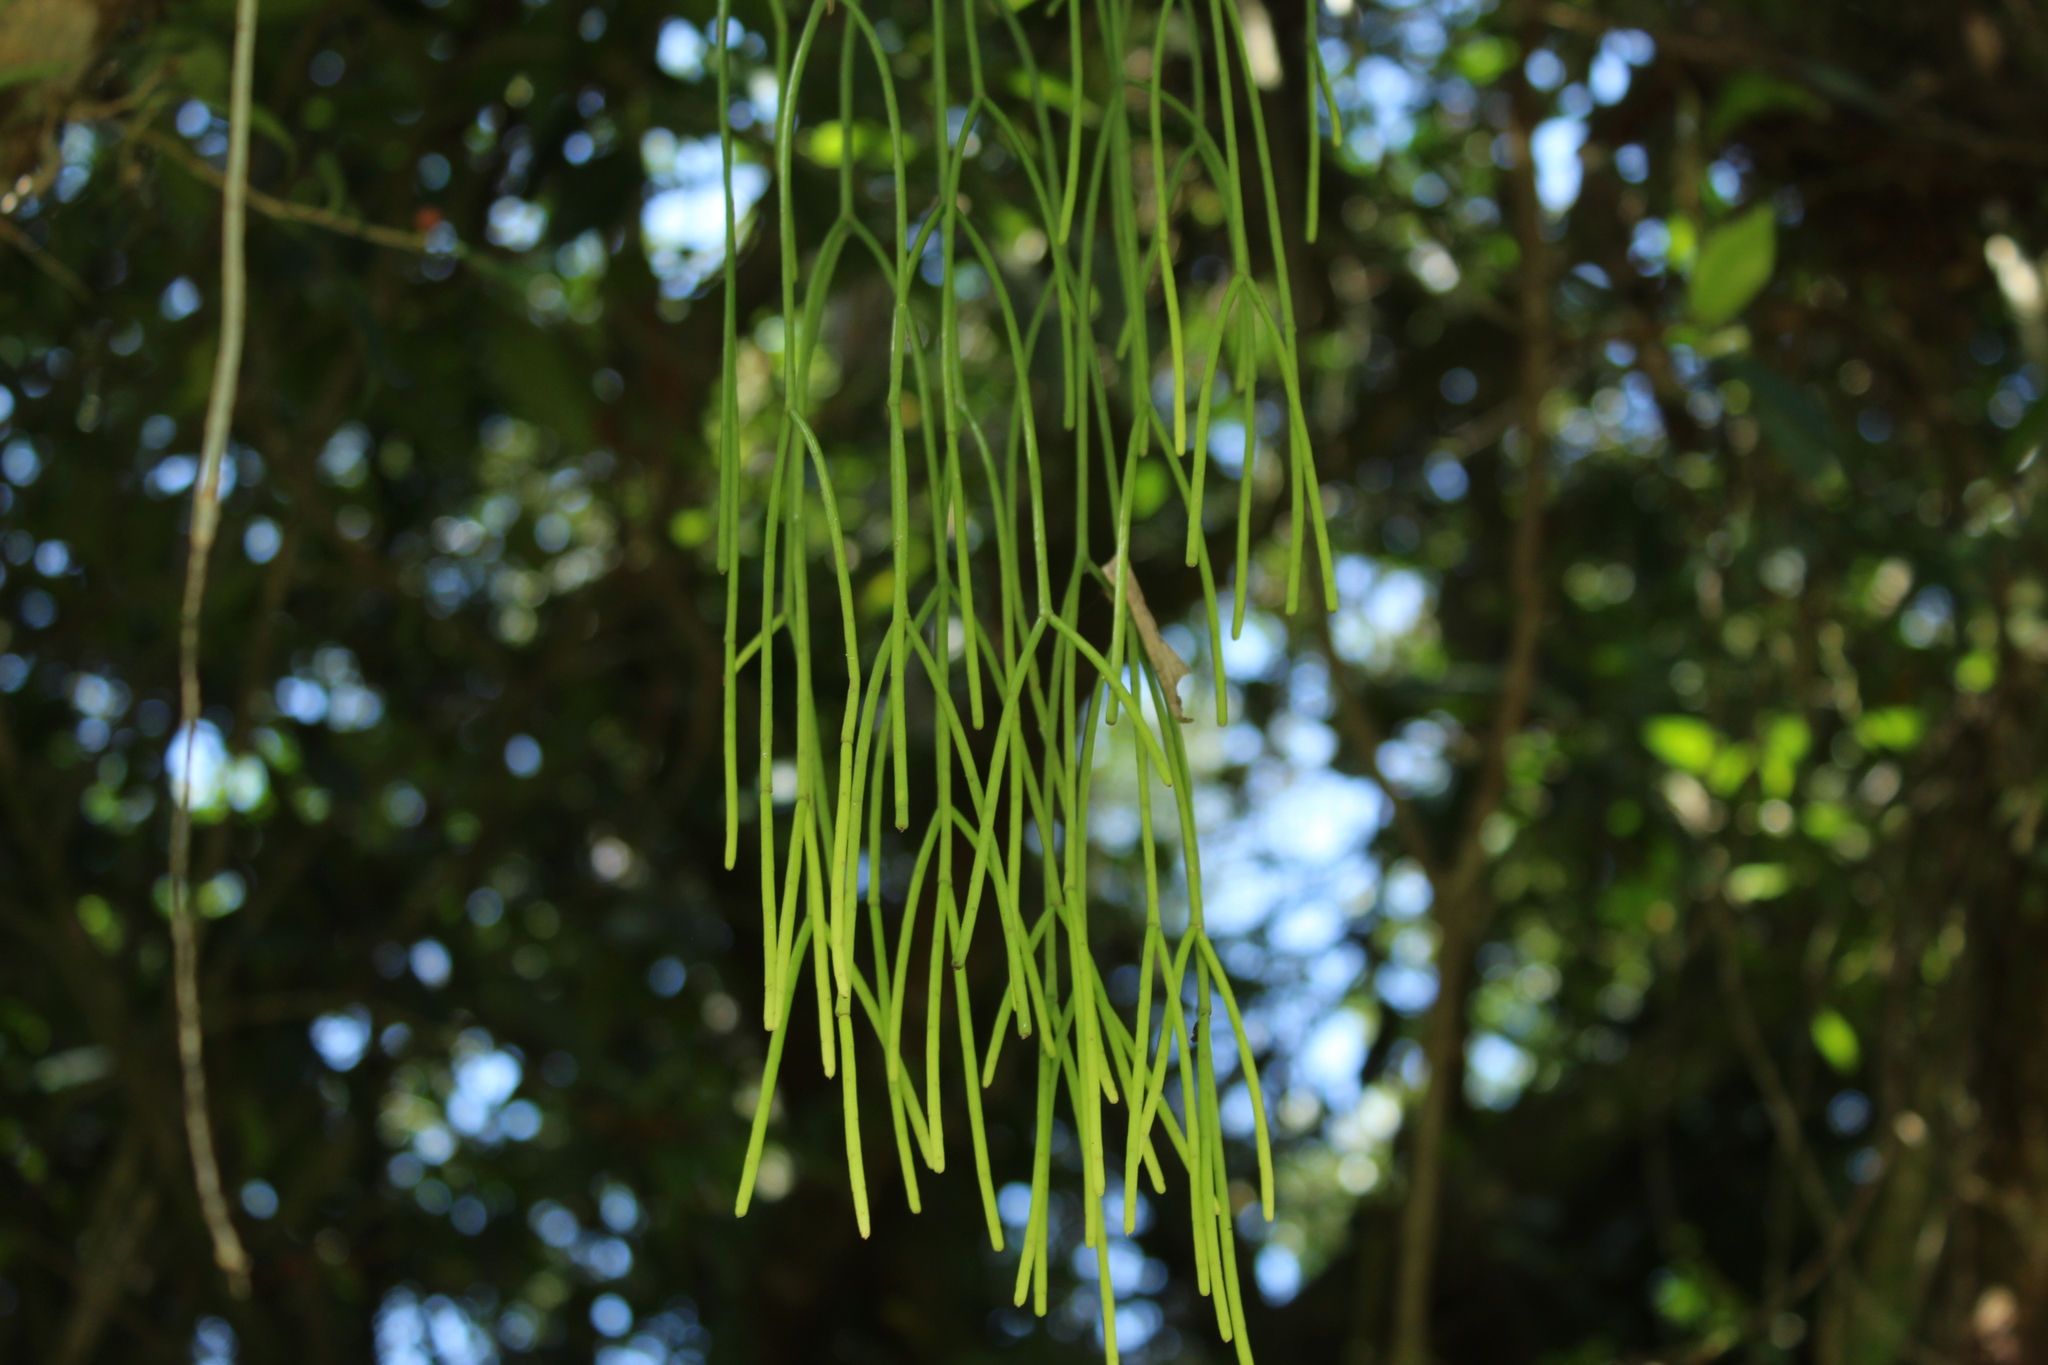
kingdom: Plantae
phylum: Tracheophyta
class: Magnoliopsida
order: Caryophyllales
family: Cactaceae
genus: Rhipsalis
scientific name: Rhipsalis baccifera
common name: Mistletoe cactus
